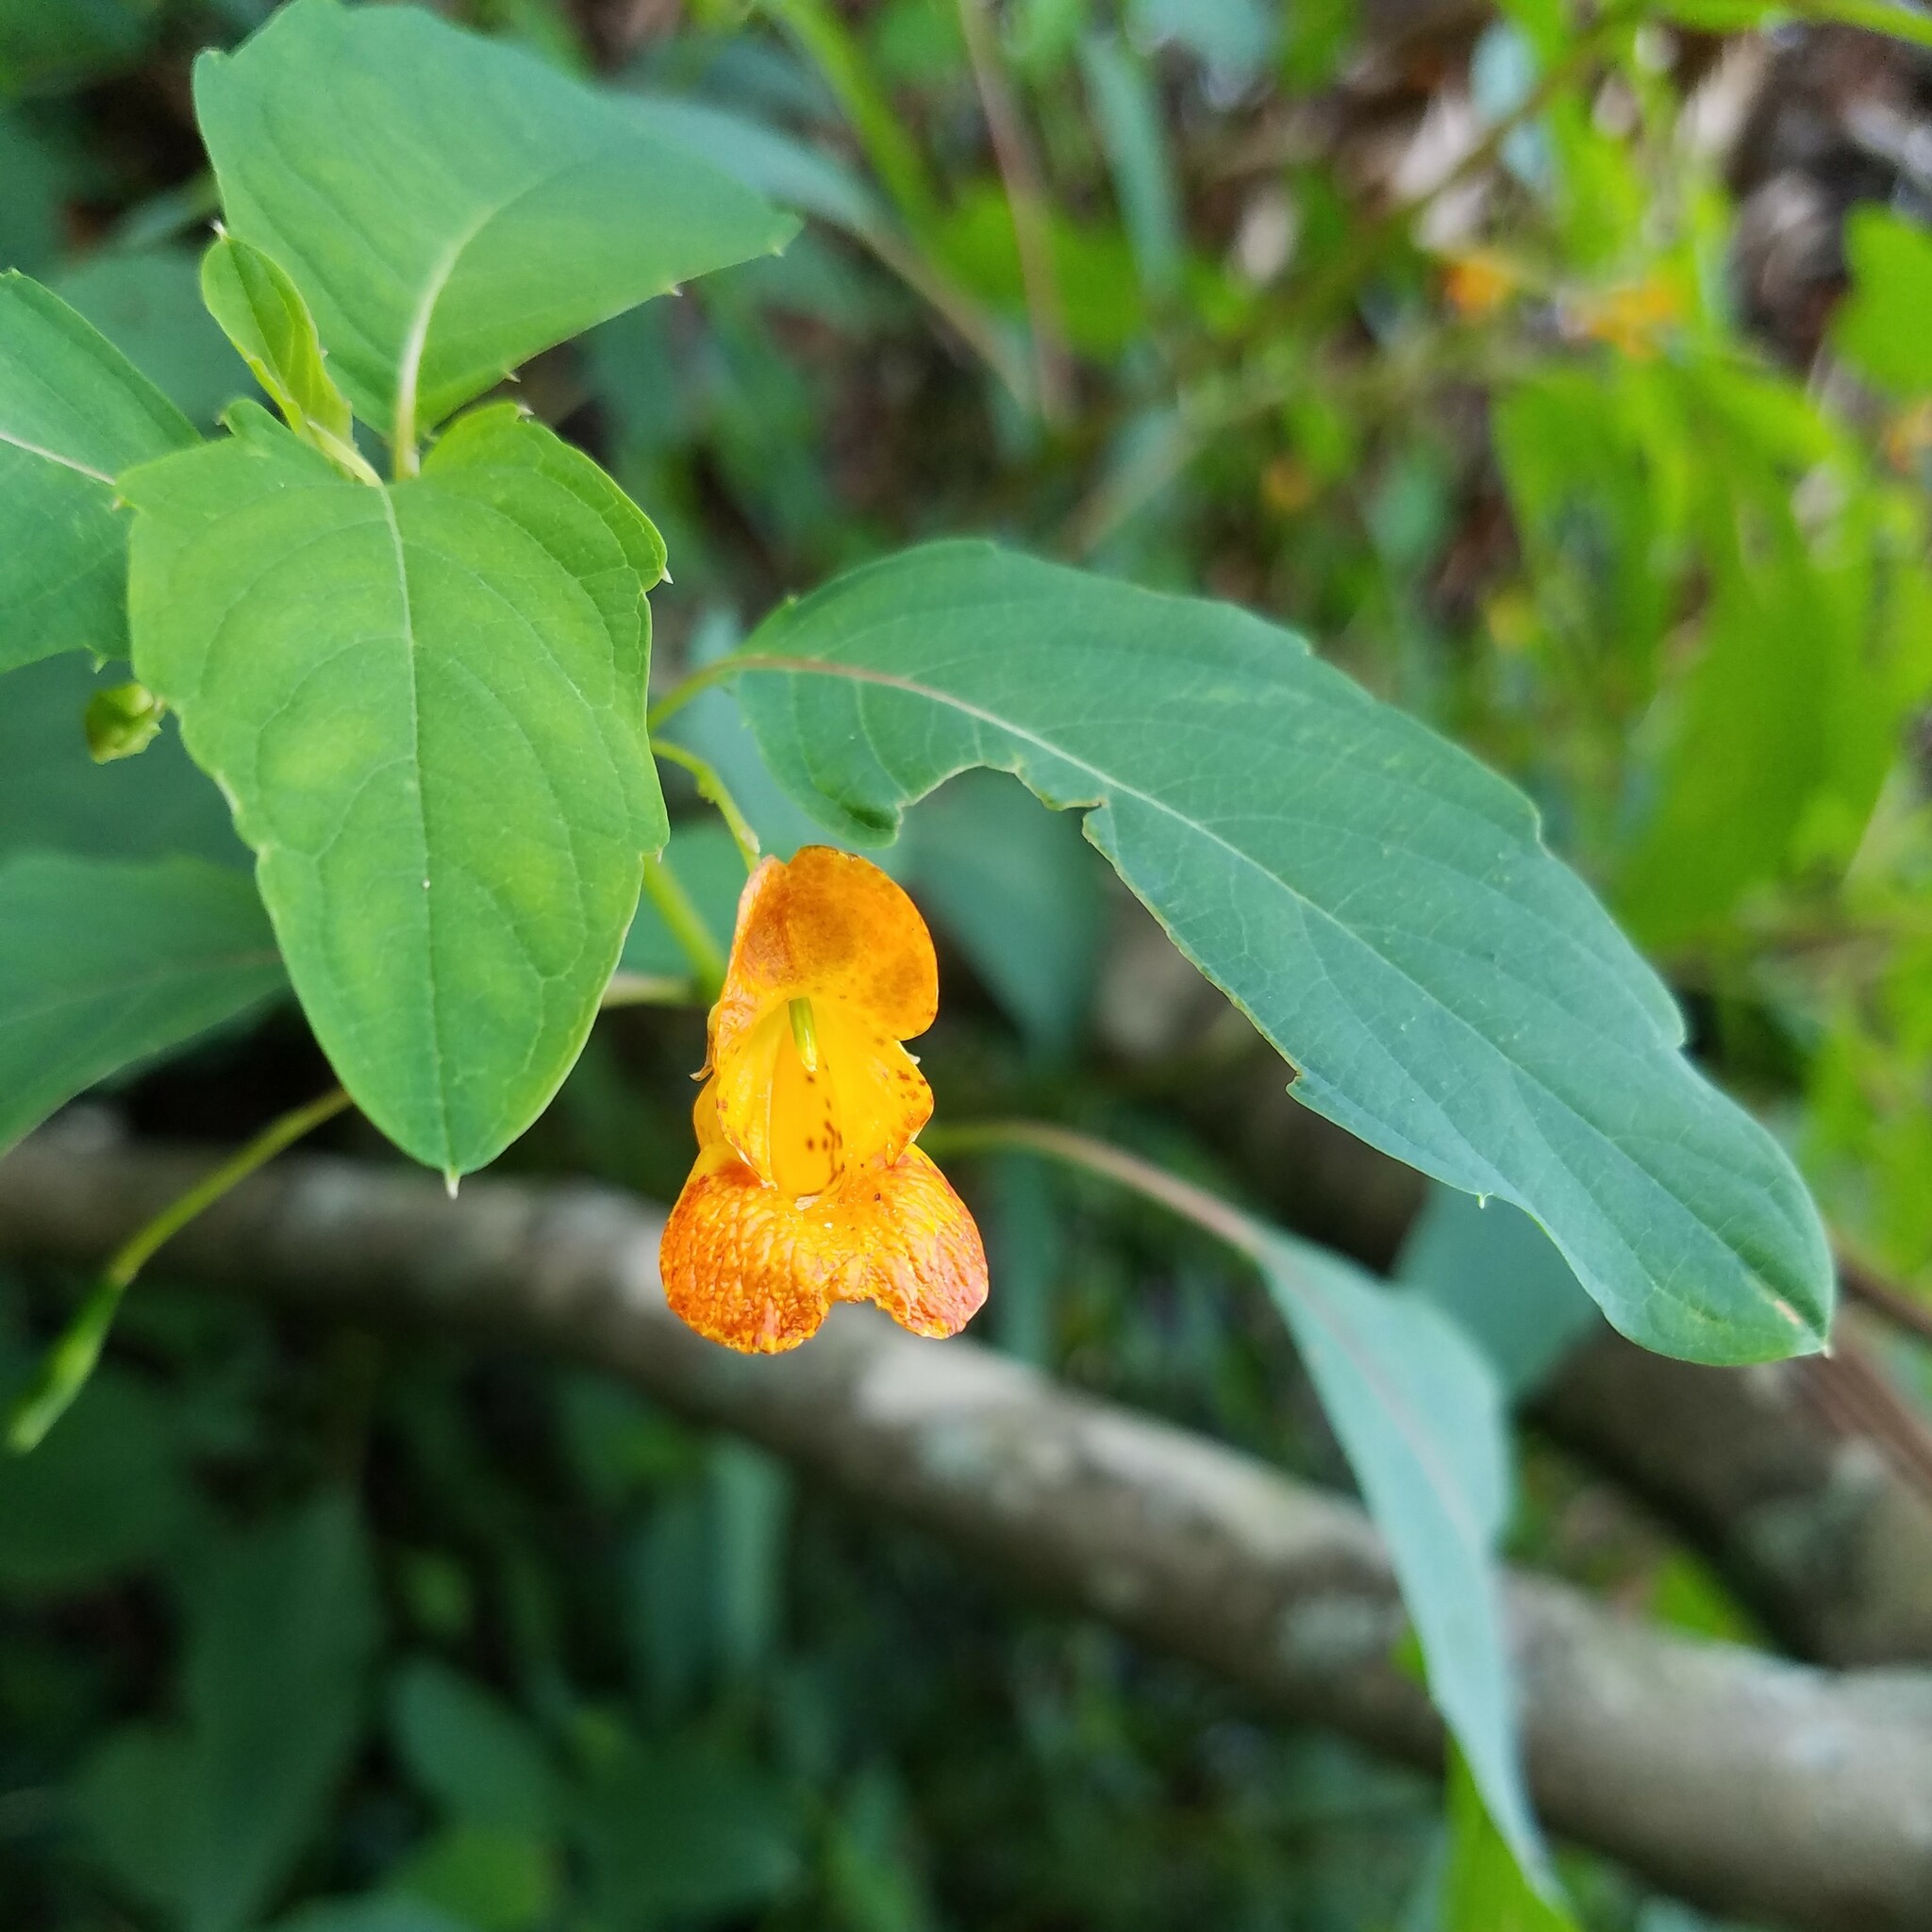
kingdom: Plantae
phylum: Tracheophyta
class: Magnoliopsida
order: Ericales
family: Balsaminaceae
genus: Impatiens
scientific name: Impatiens capensis
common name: Orange balsam
